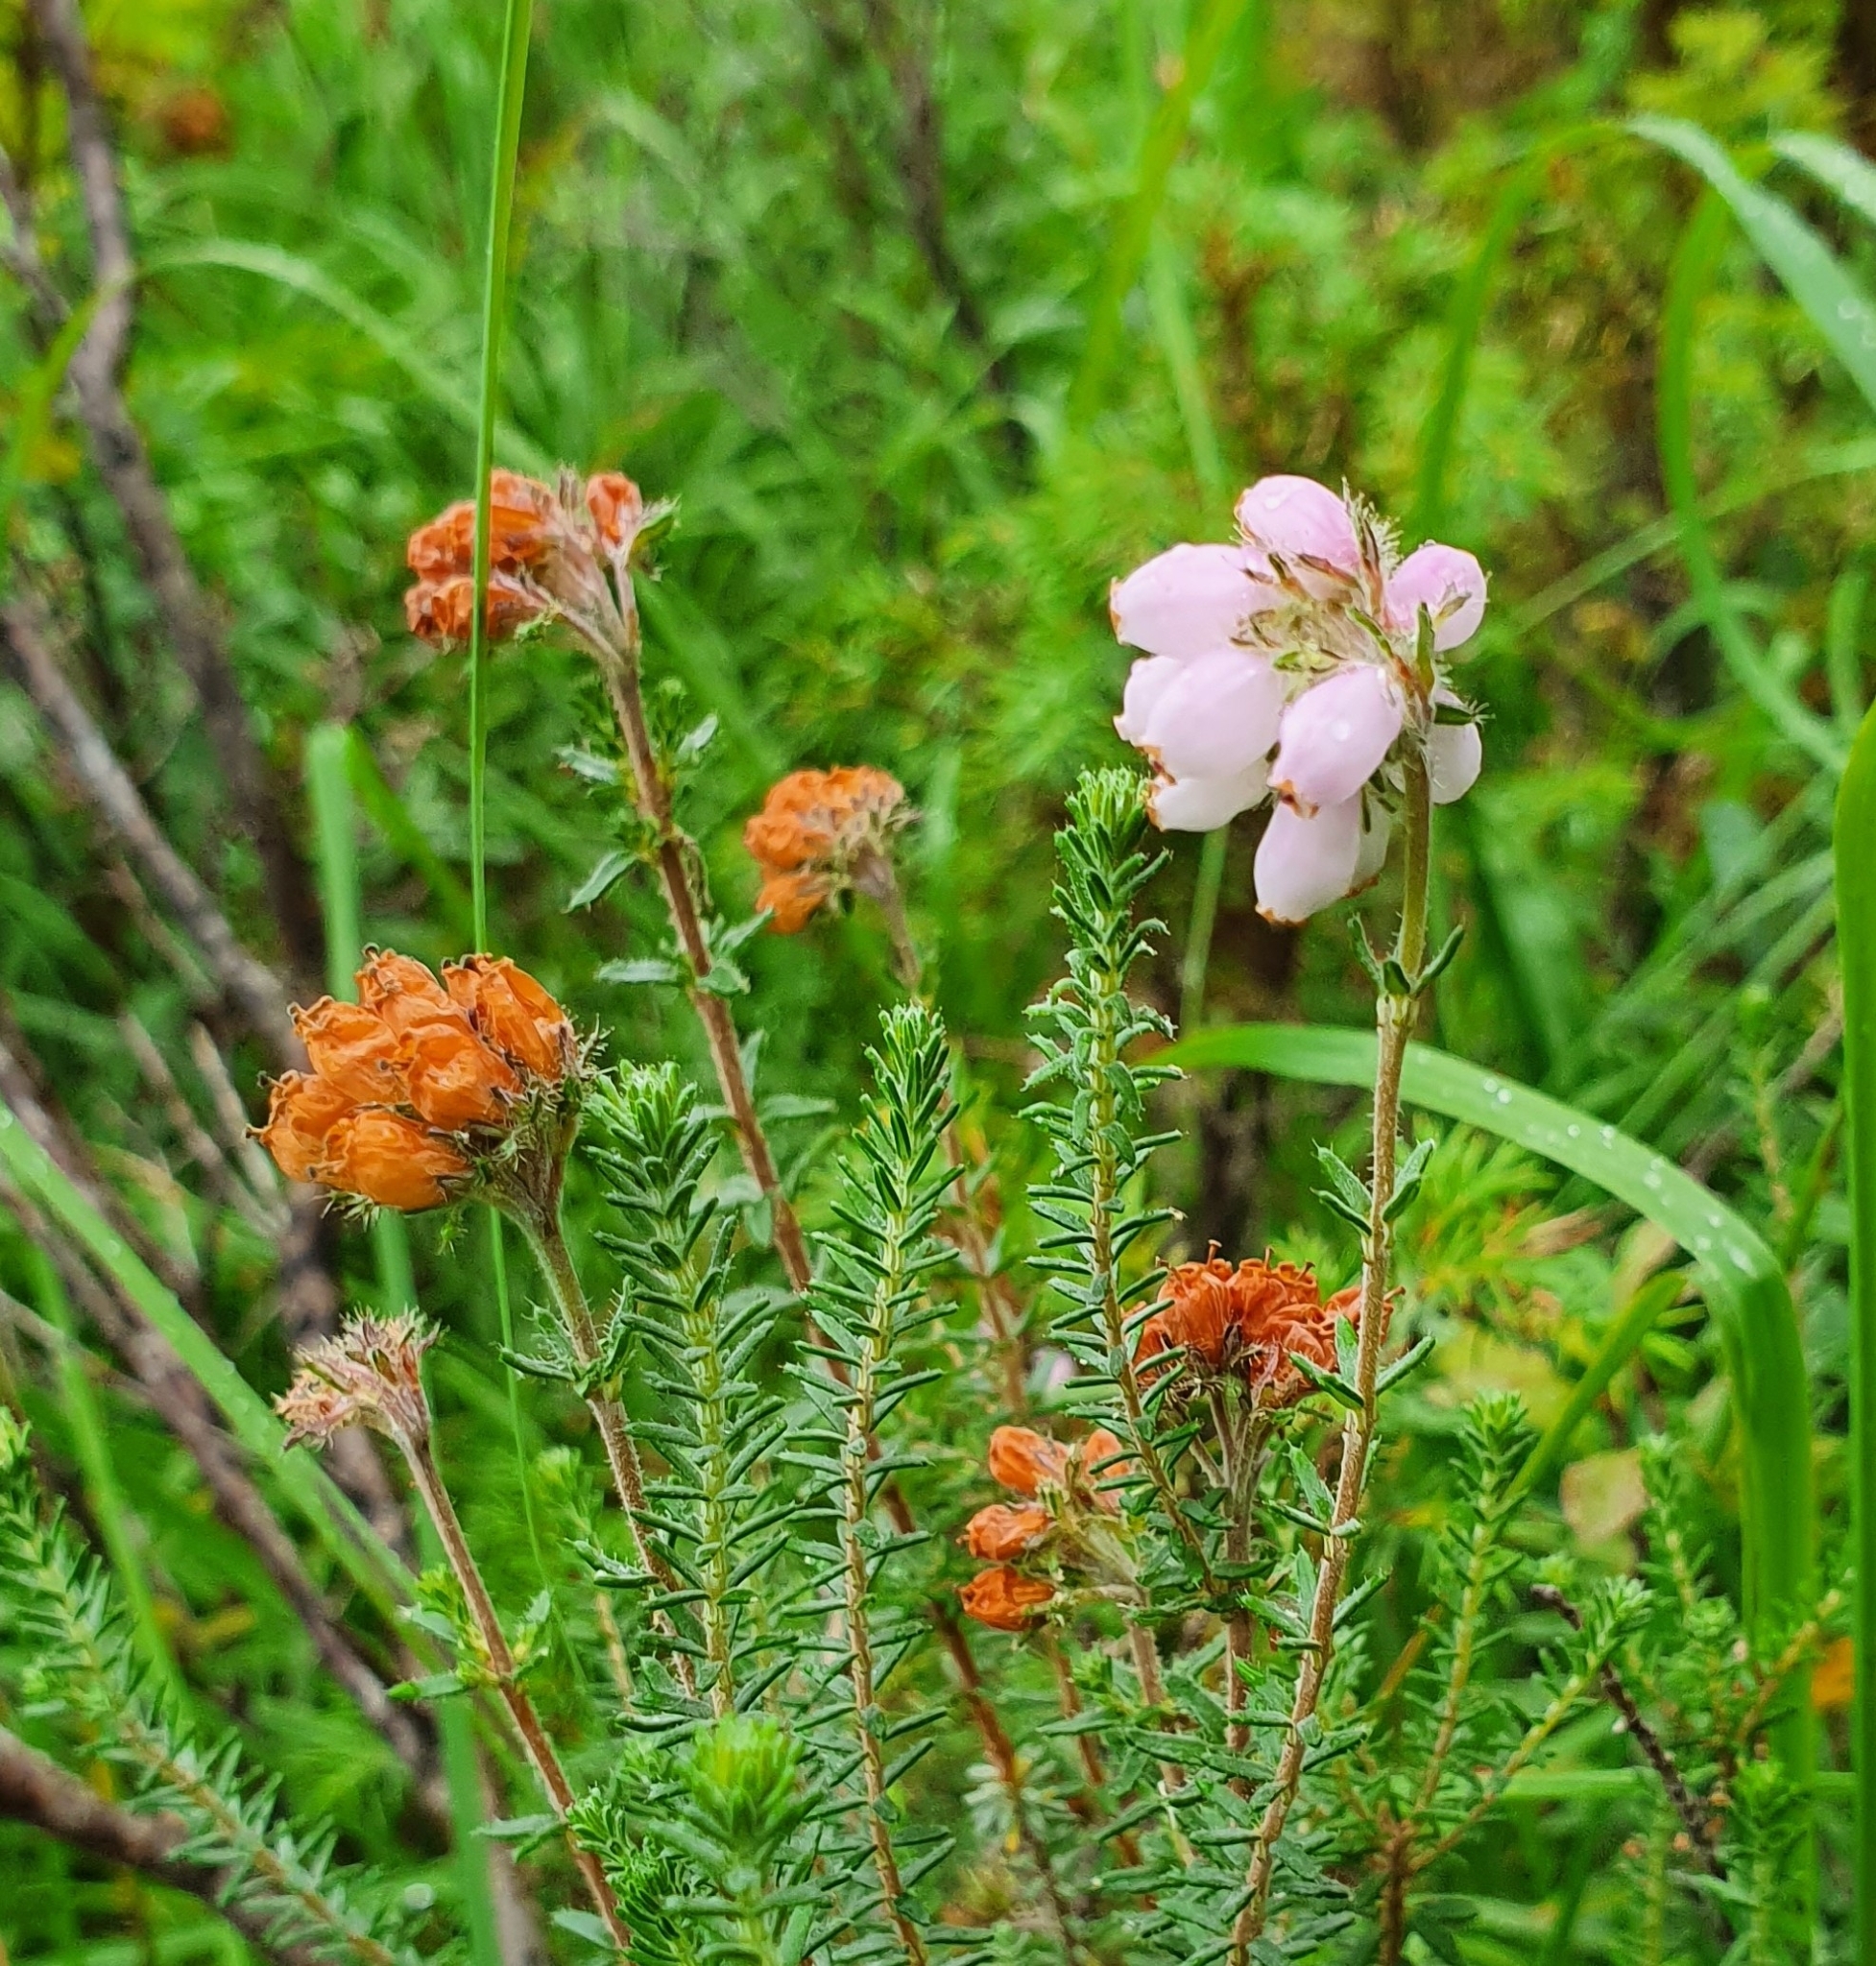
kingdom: Plantae
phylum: Tracheophyta
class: Magnoliopsida
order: Ericales
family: Ericaceae
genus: Erica
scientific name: Erica tetralix
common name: Cross-leaved heath
